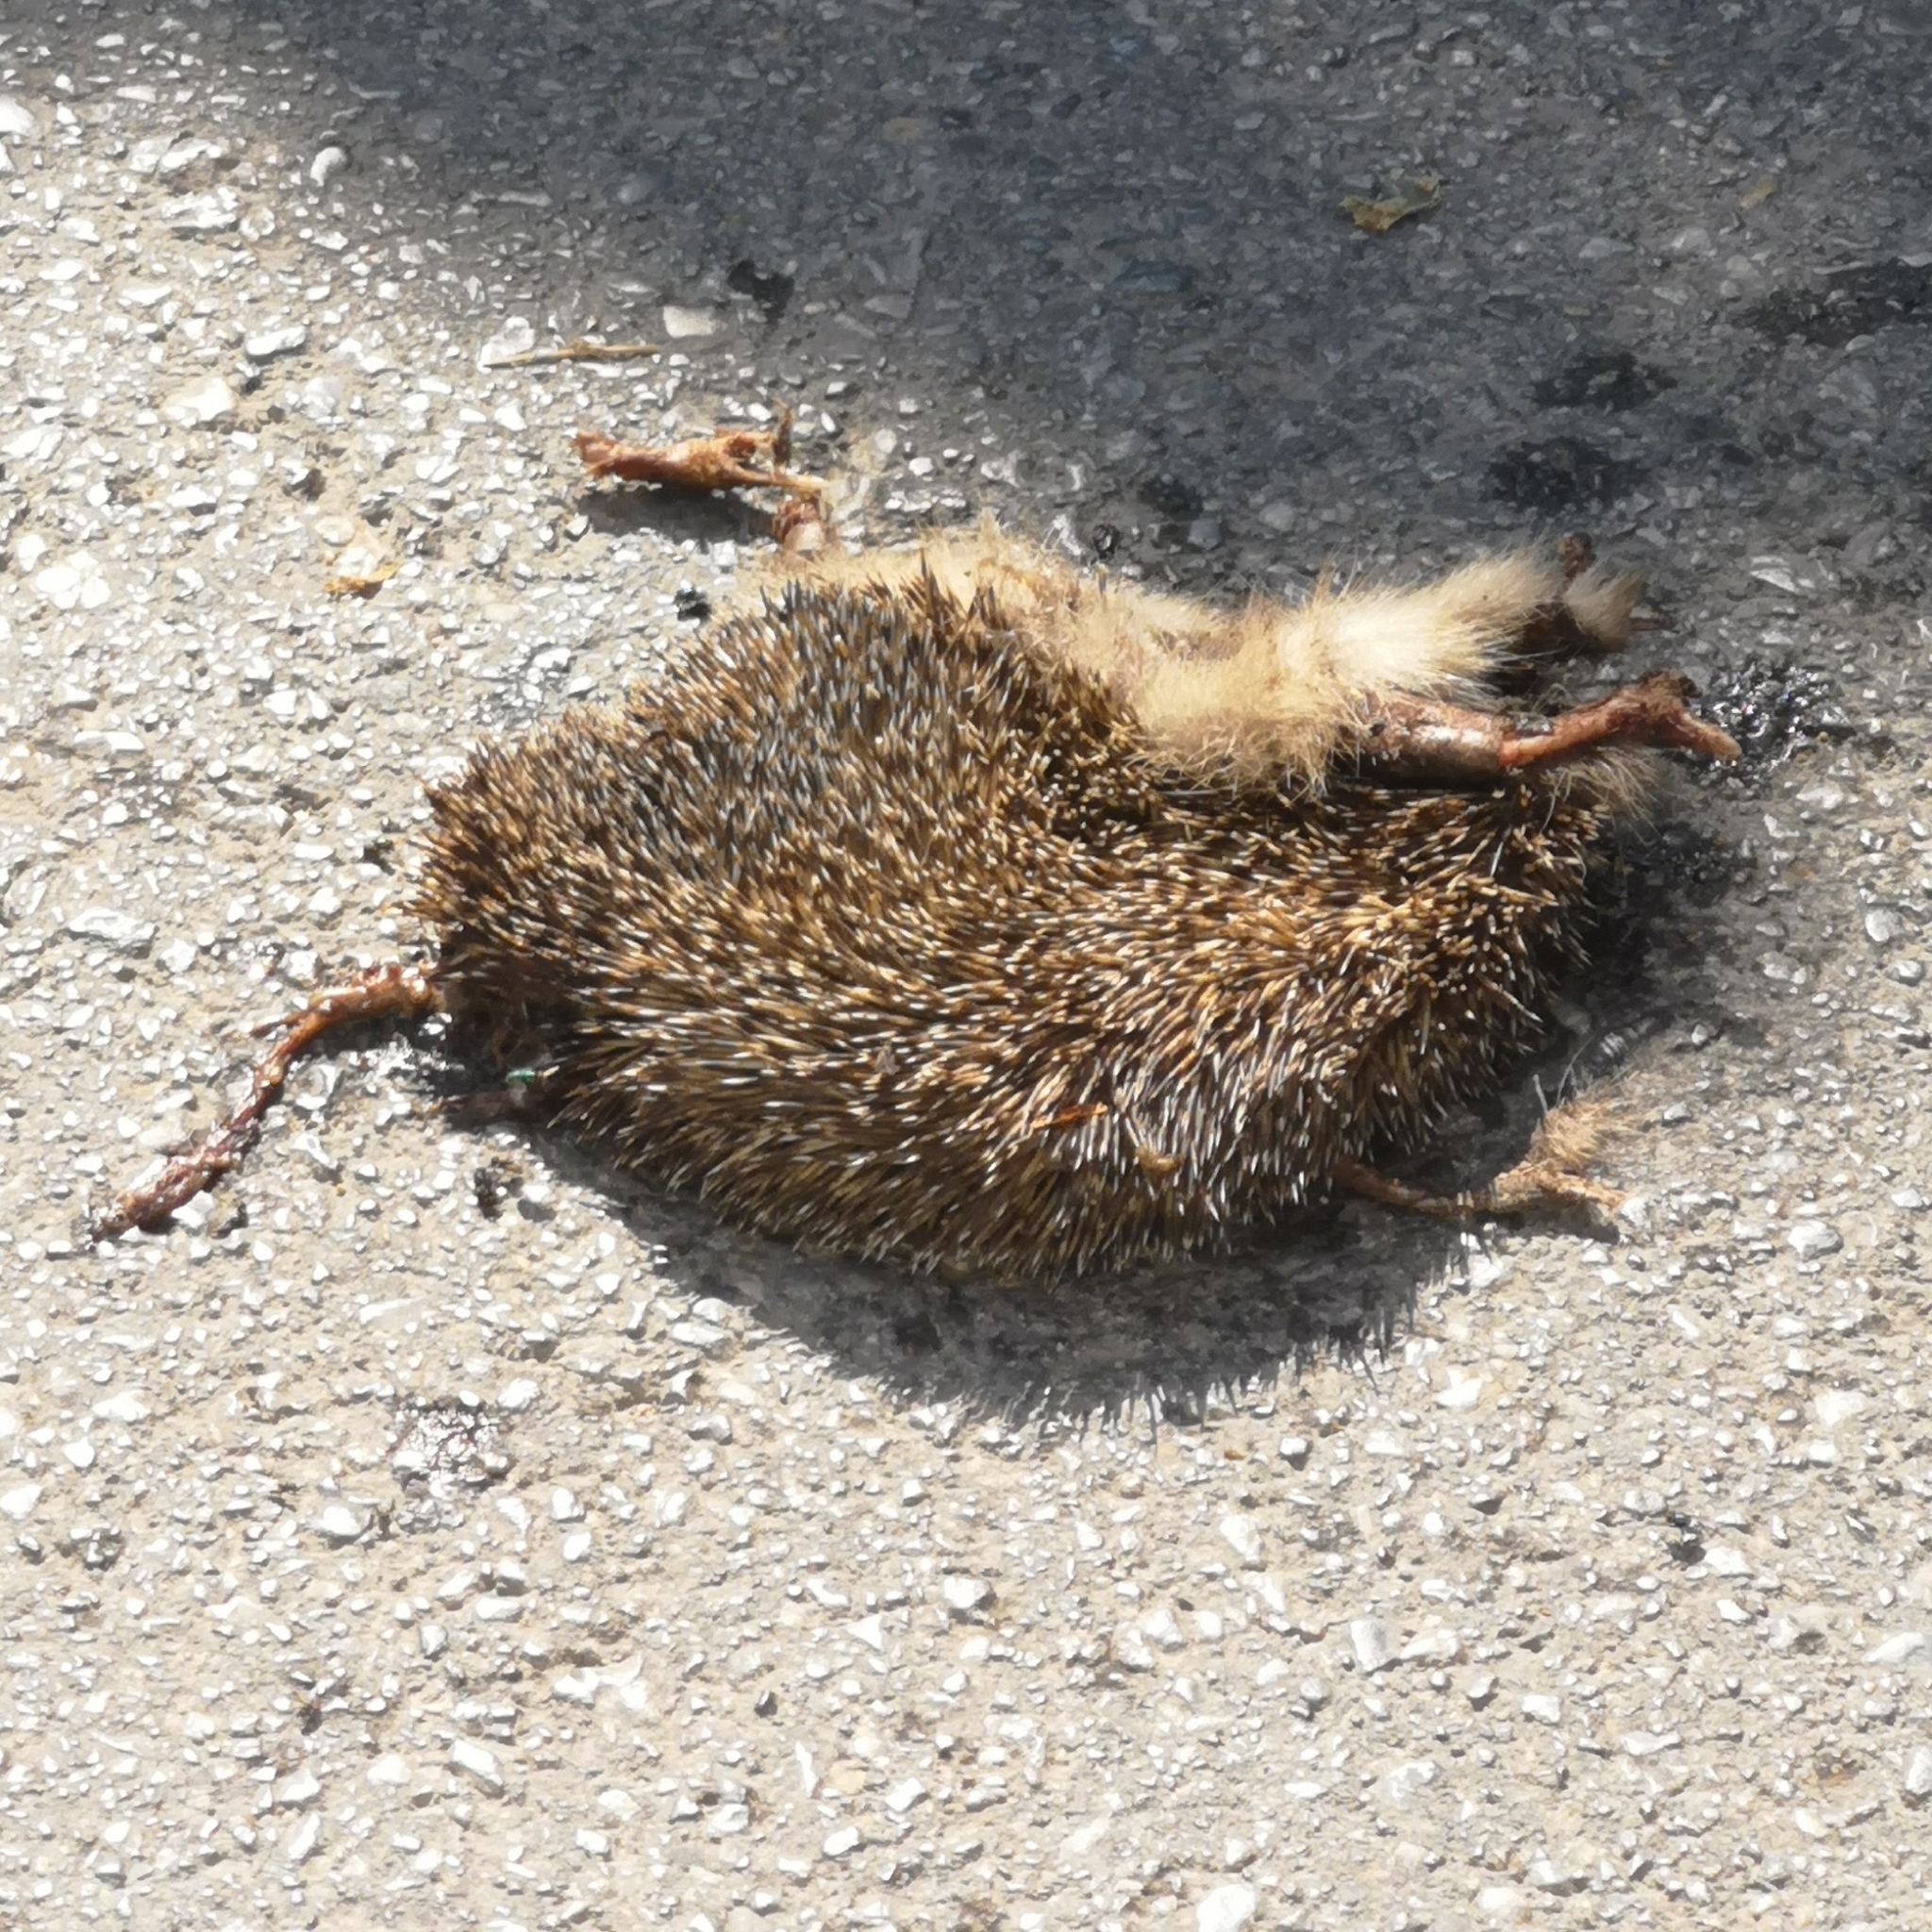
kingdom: Animalia
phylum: Chordata
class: Mammalia
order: Erinaceomorpha
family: Erinaceidae
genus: Erinaceus
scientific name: Erinaceus roumanicus
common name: Northern white-breasted hedgehog
